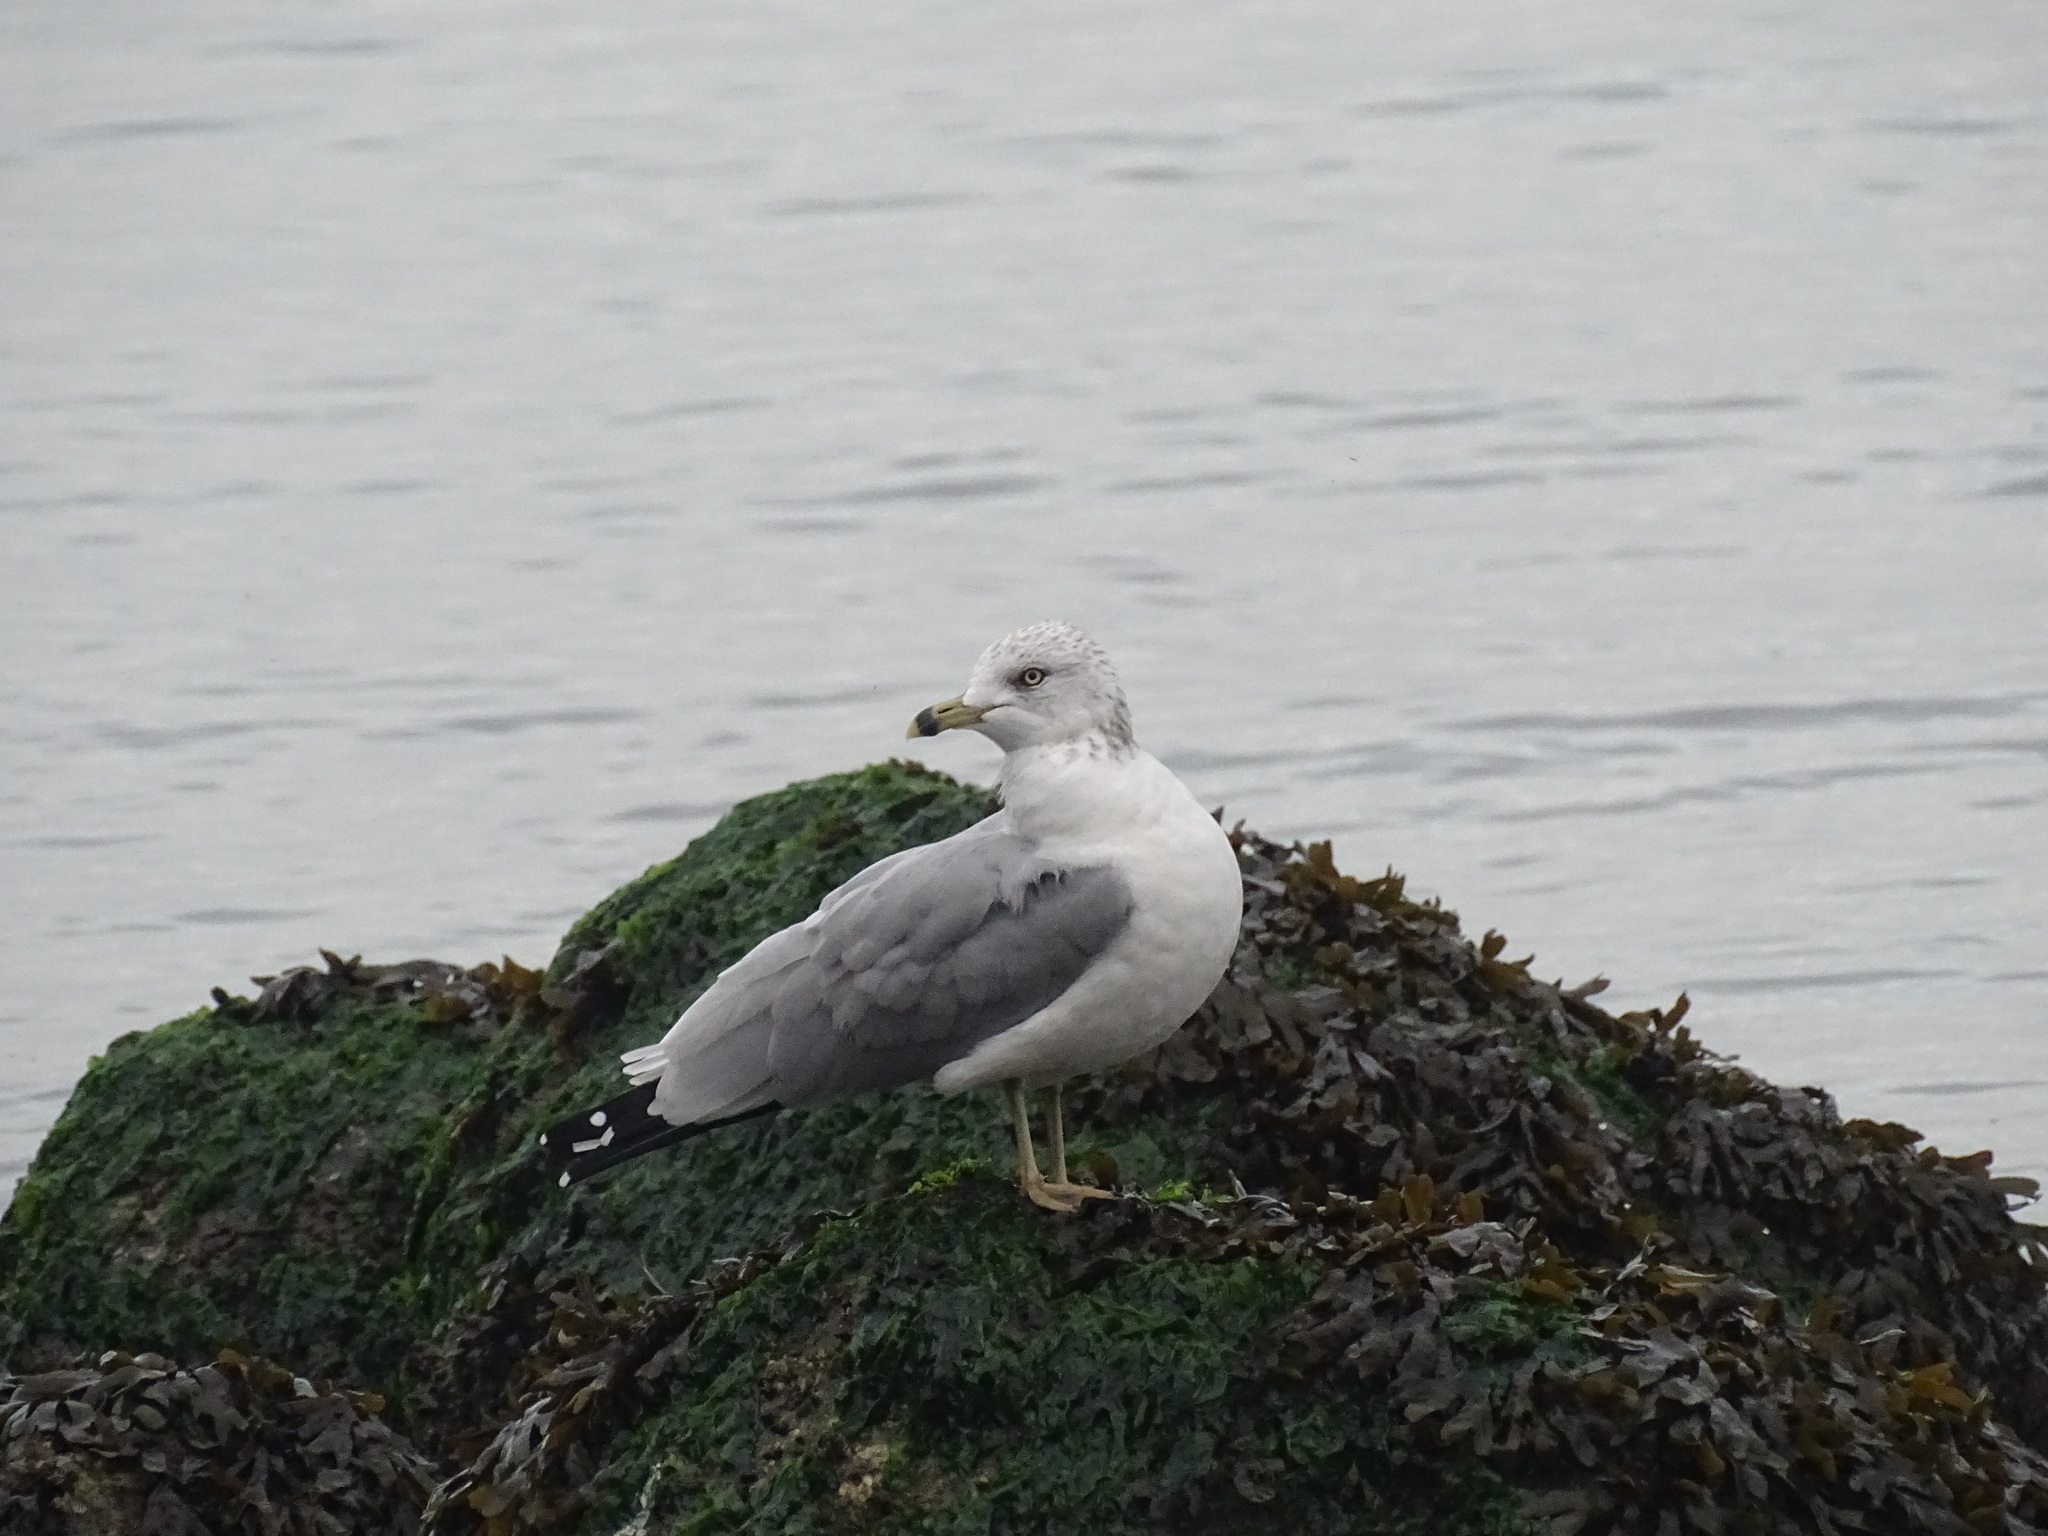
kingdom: Animalia
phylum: Chordata
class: Aves
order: Charadriiformes
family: Laridae
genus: Larus
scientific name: Larus delawarensis
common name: Ring-billed gull
